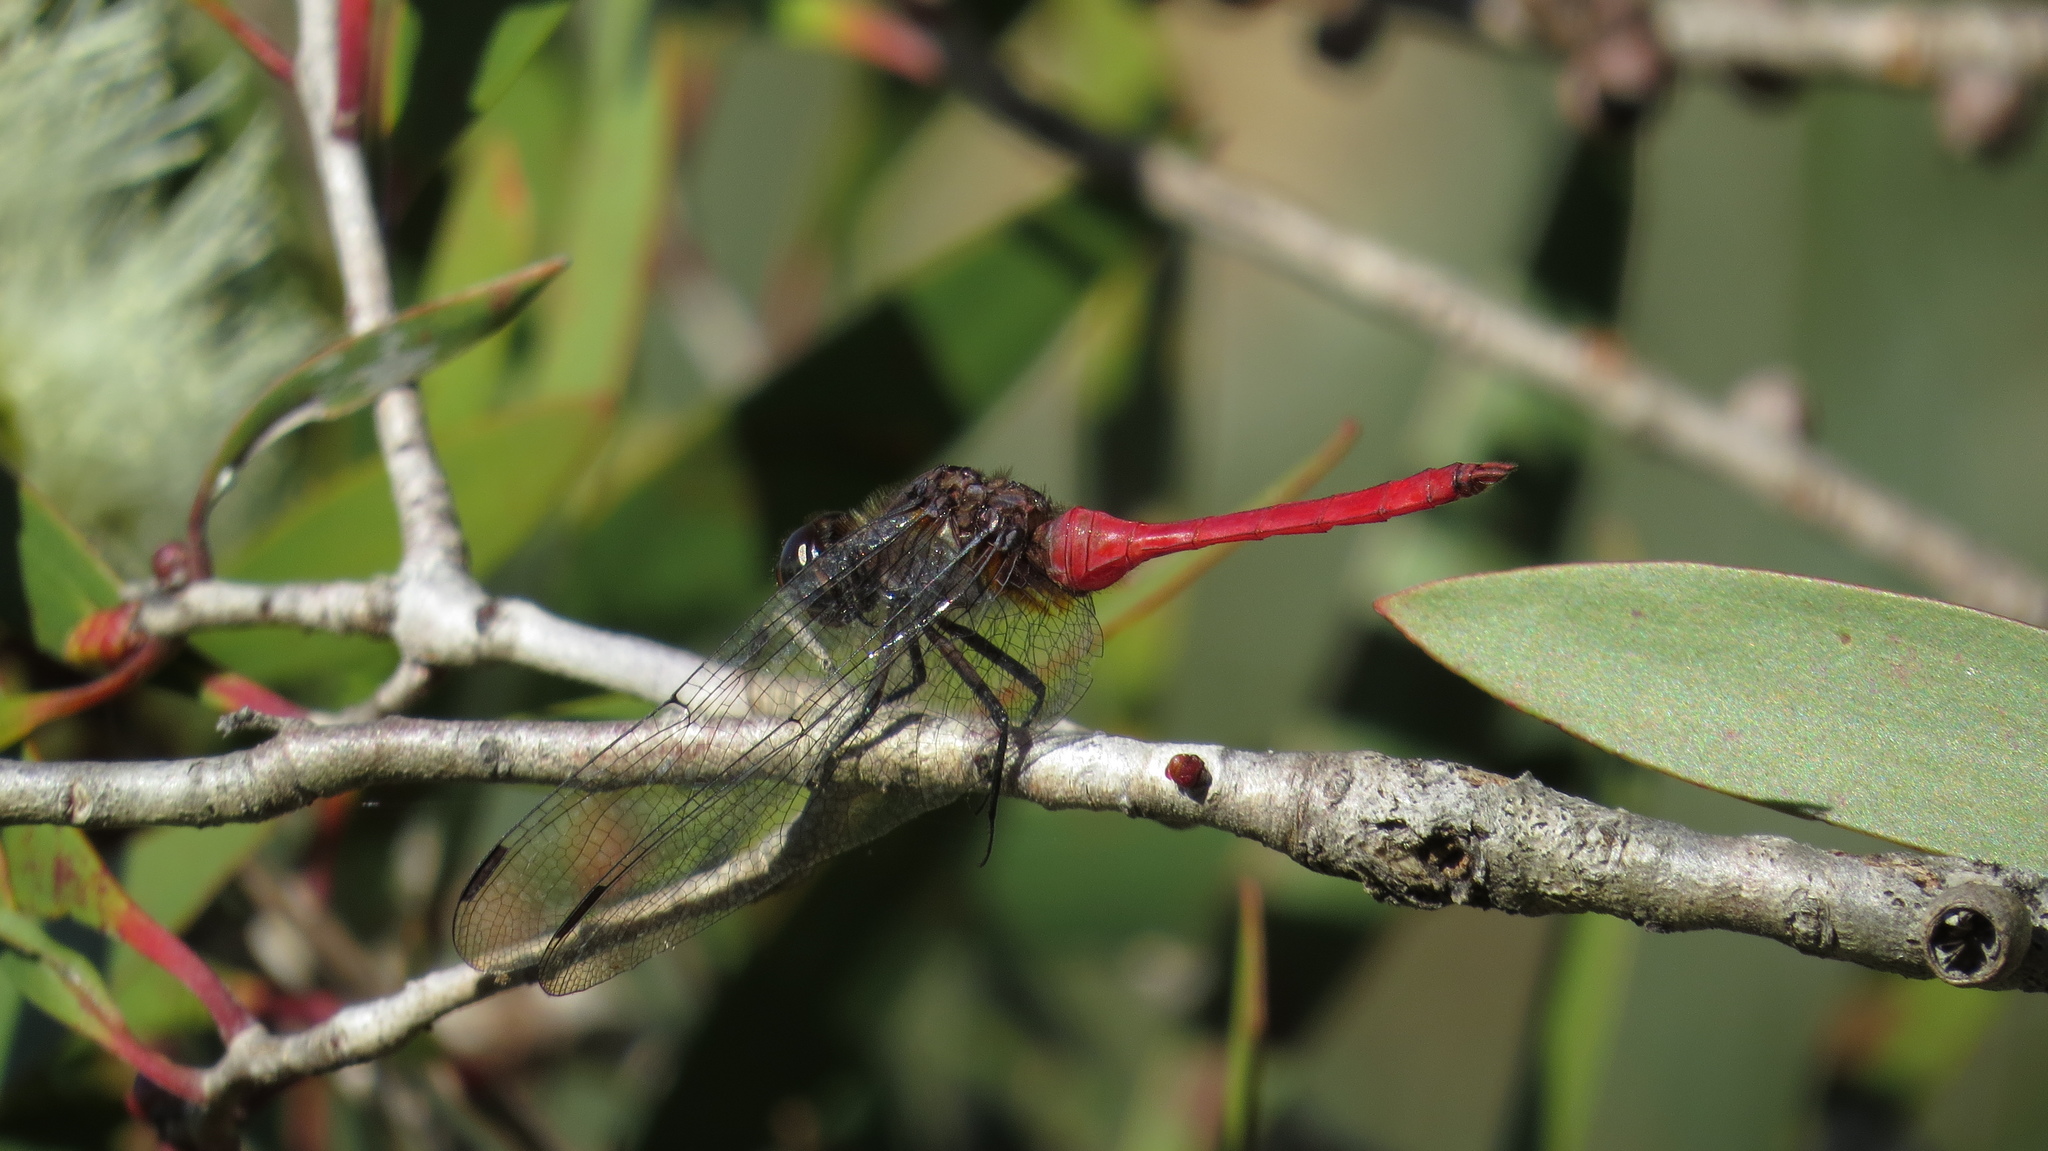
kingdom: Animalia
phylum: Arthropoda
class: Insecta
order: Odonata
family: Libellulidae
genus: Orthetrum
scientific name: Orthetrum villosovittatum
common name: Firery skimmer
